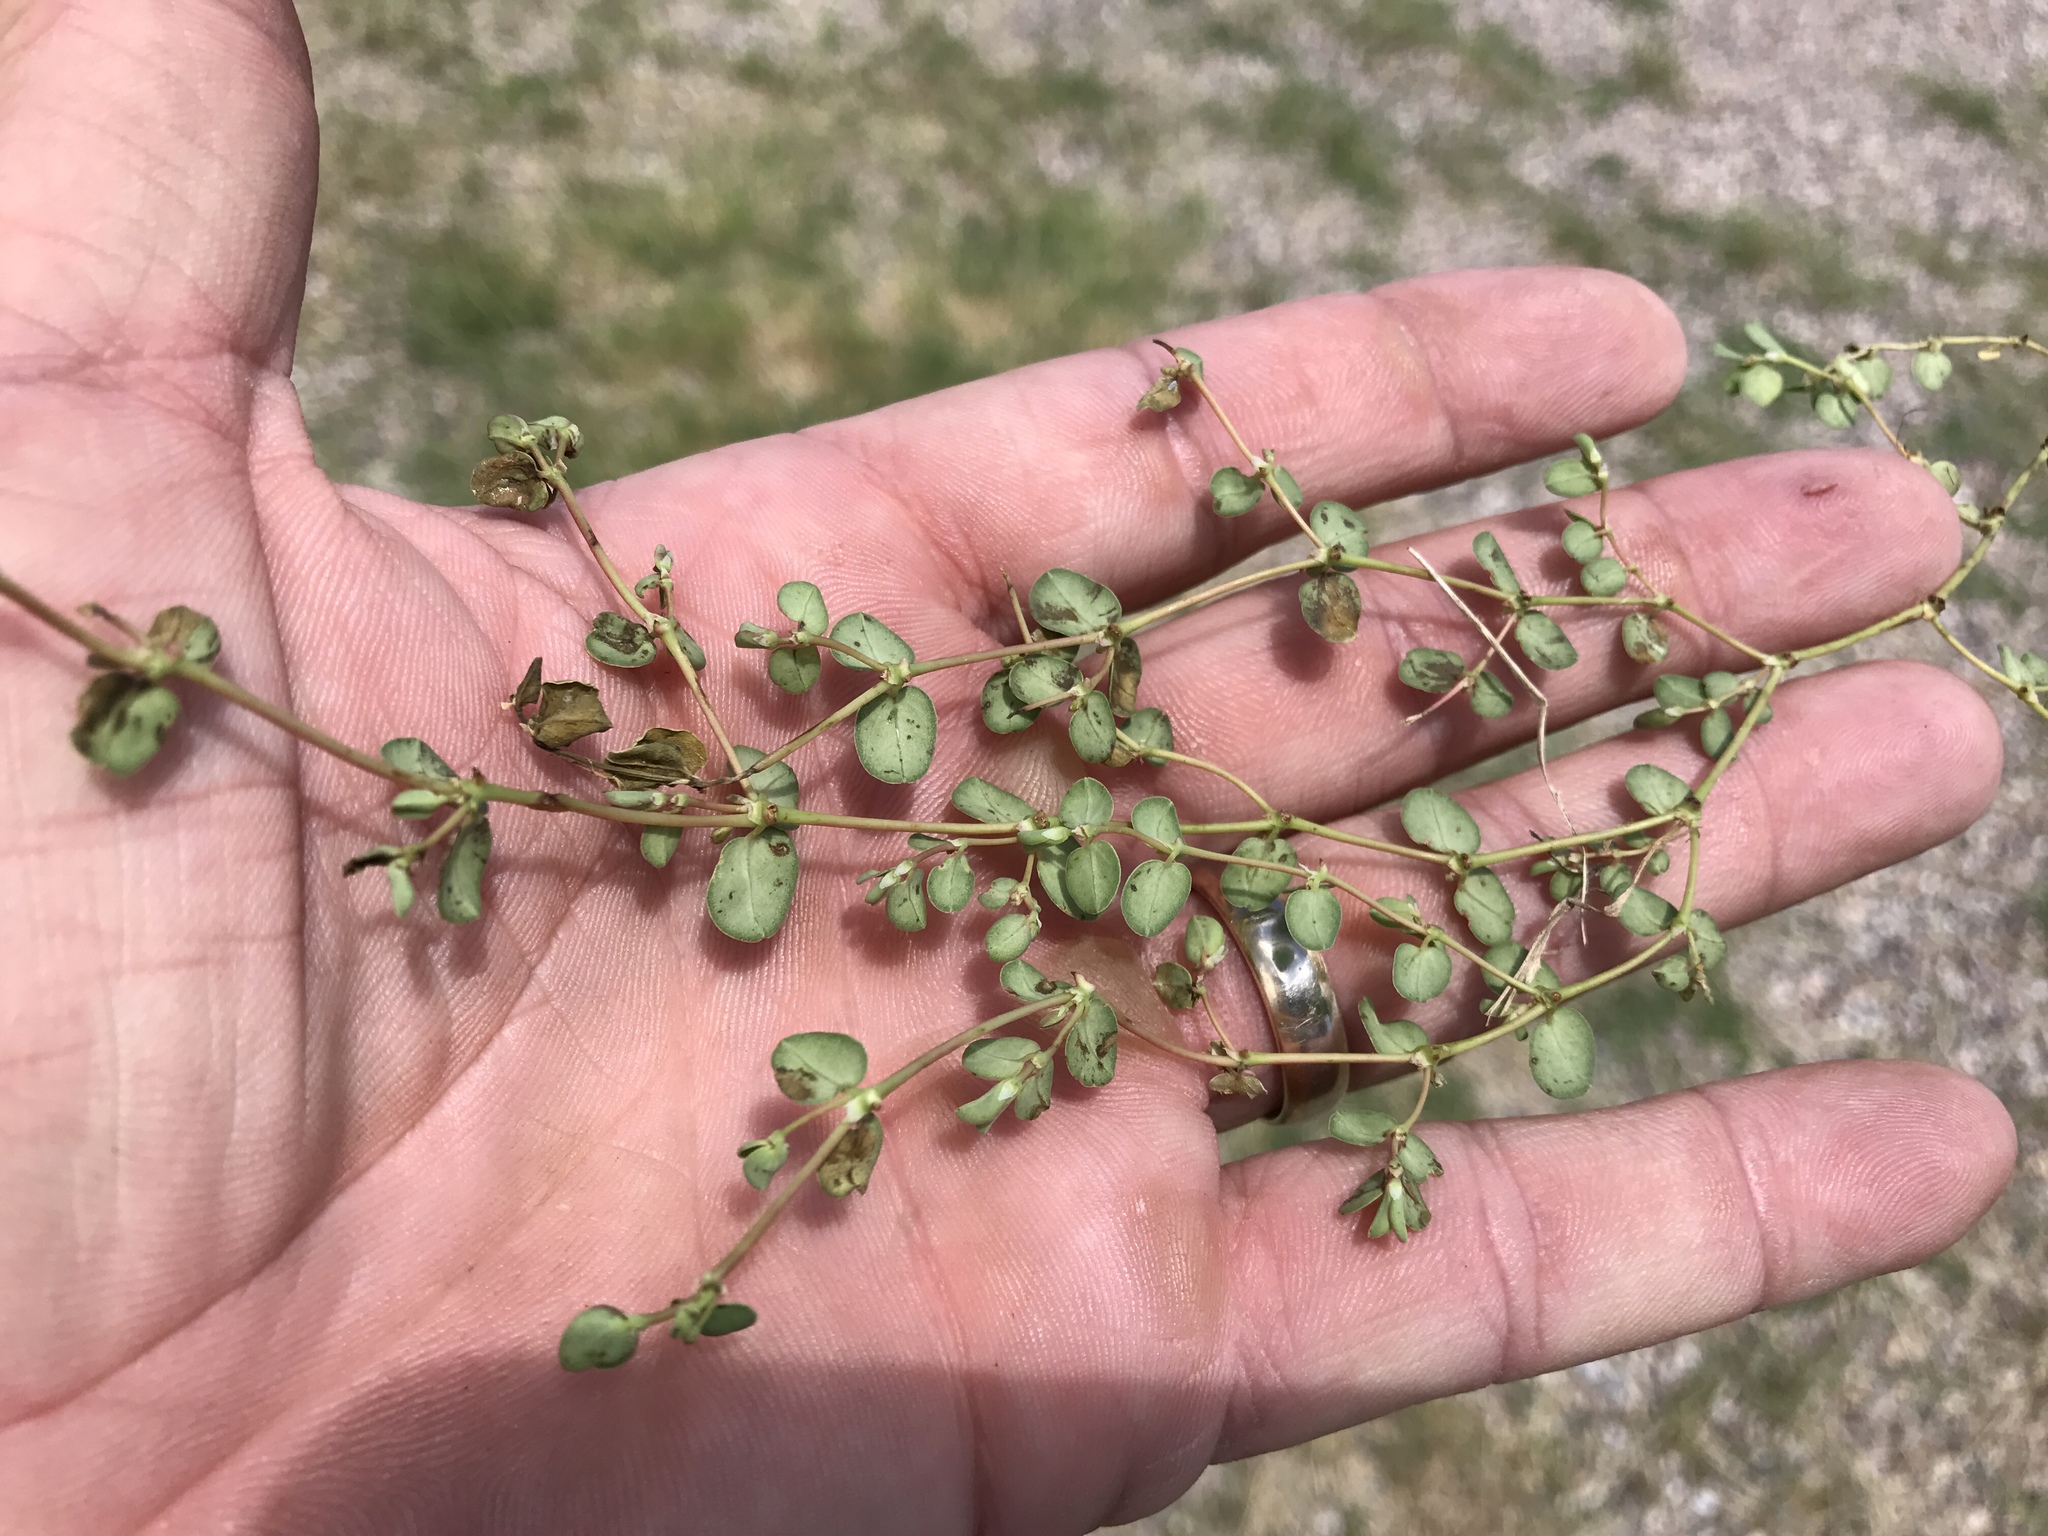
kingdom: Plantae
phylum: Tracheophyta
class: Magnoliopsida
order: Malpighiales
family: Euphorbiaceae
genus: Euphorbia
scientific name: Euphorbia albomarginata
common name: Whitemargin sandmat
